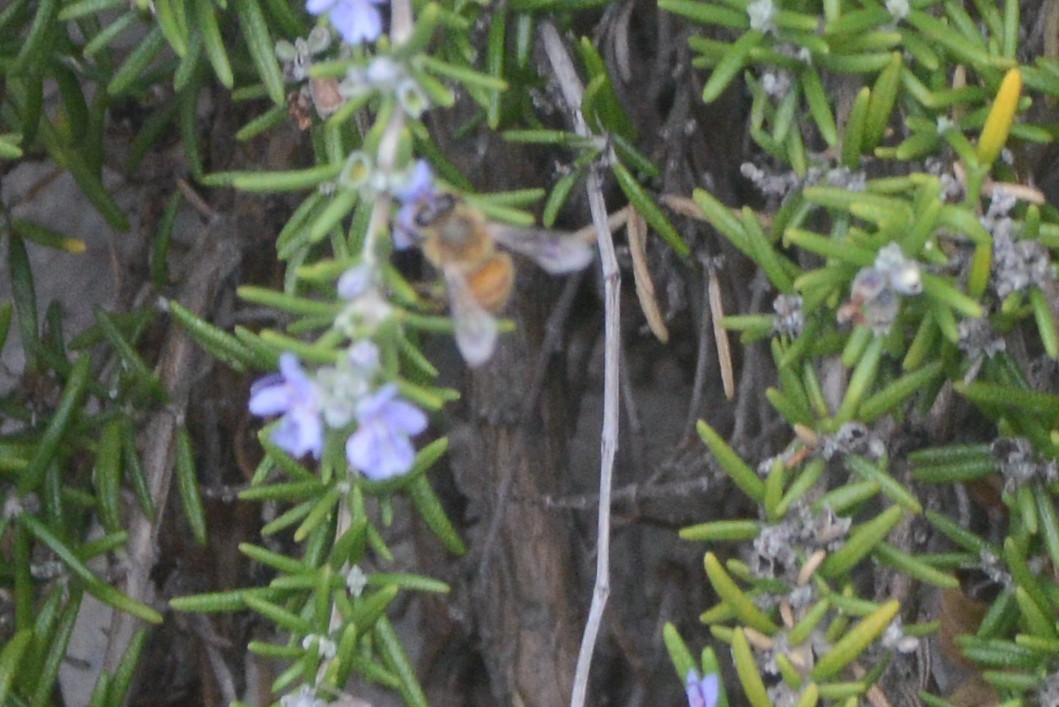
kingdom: Animalia
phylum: Arthropoda
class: Insecta
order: Hymenoptera
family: Apidae
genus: Apis
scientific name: Apis mellifera
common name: Honey bee
